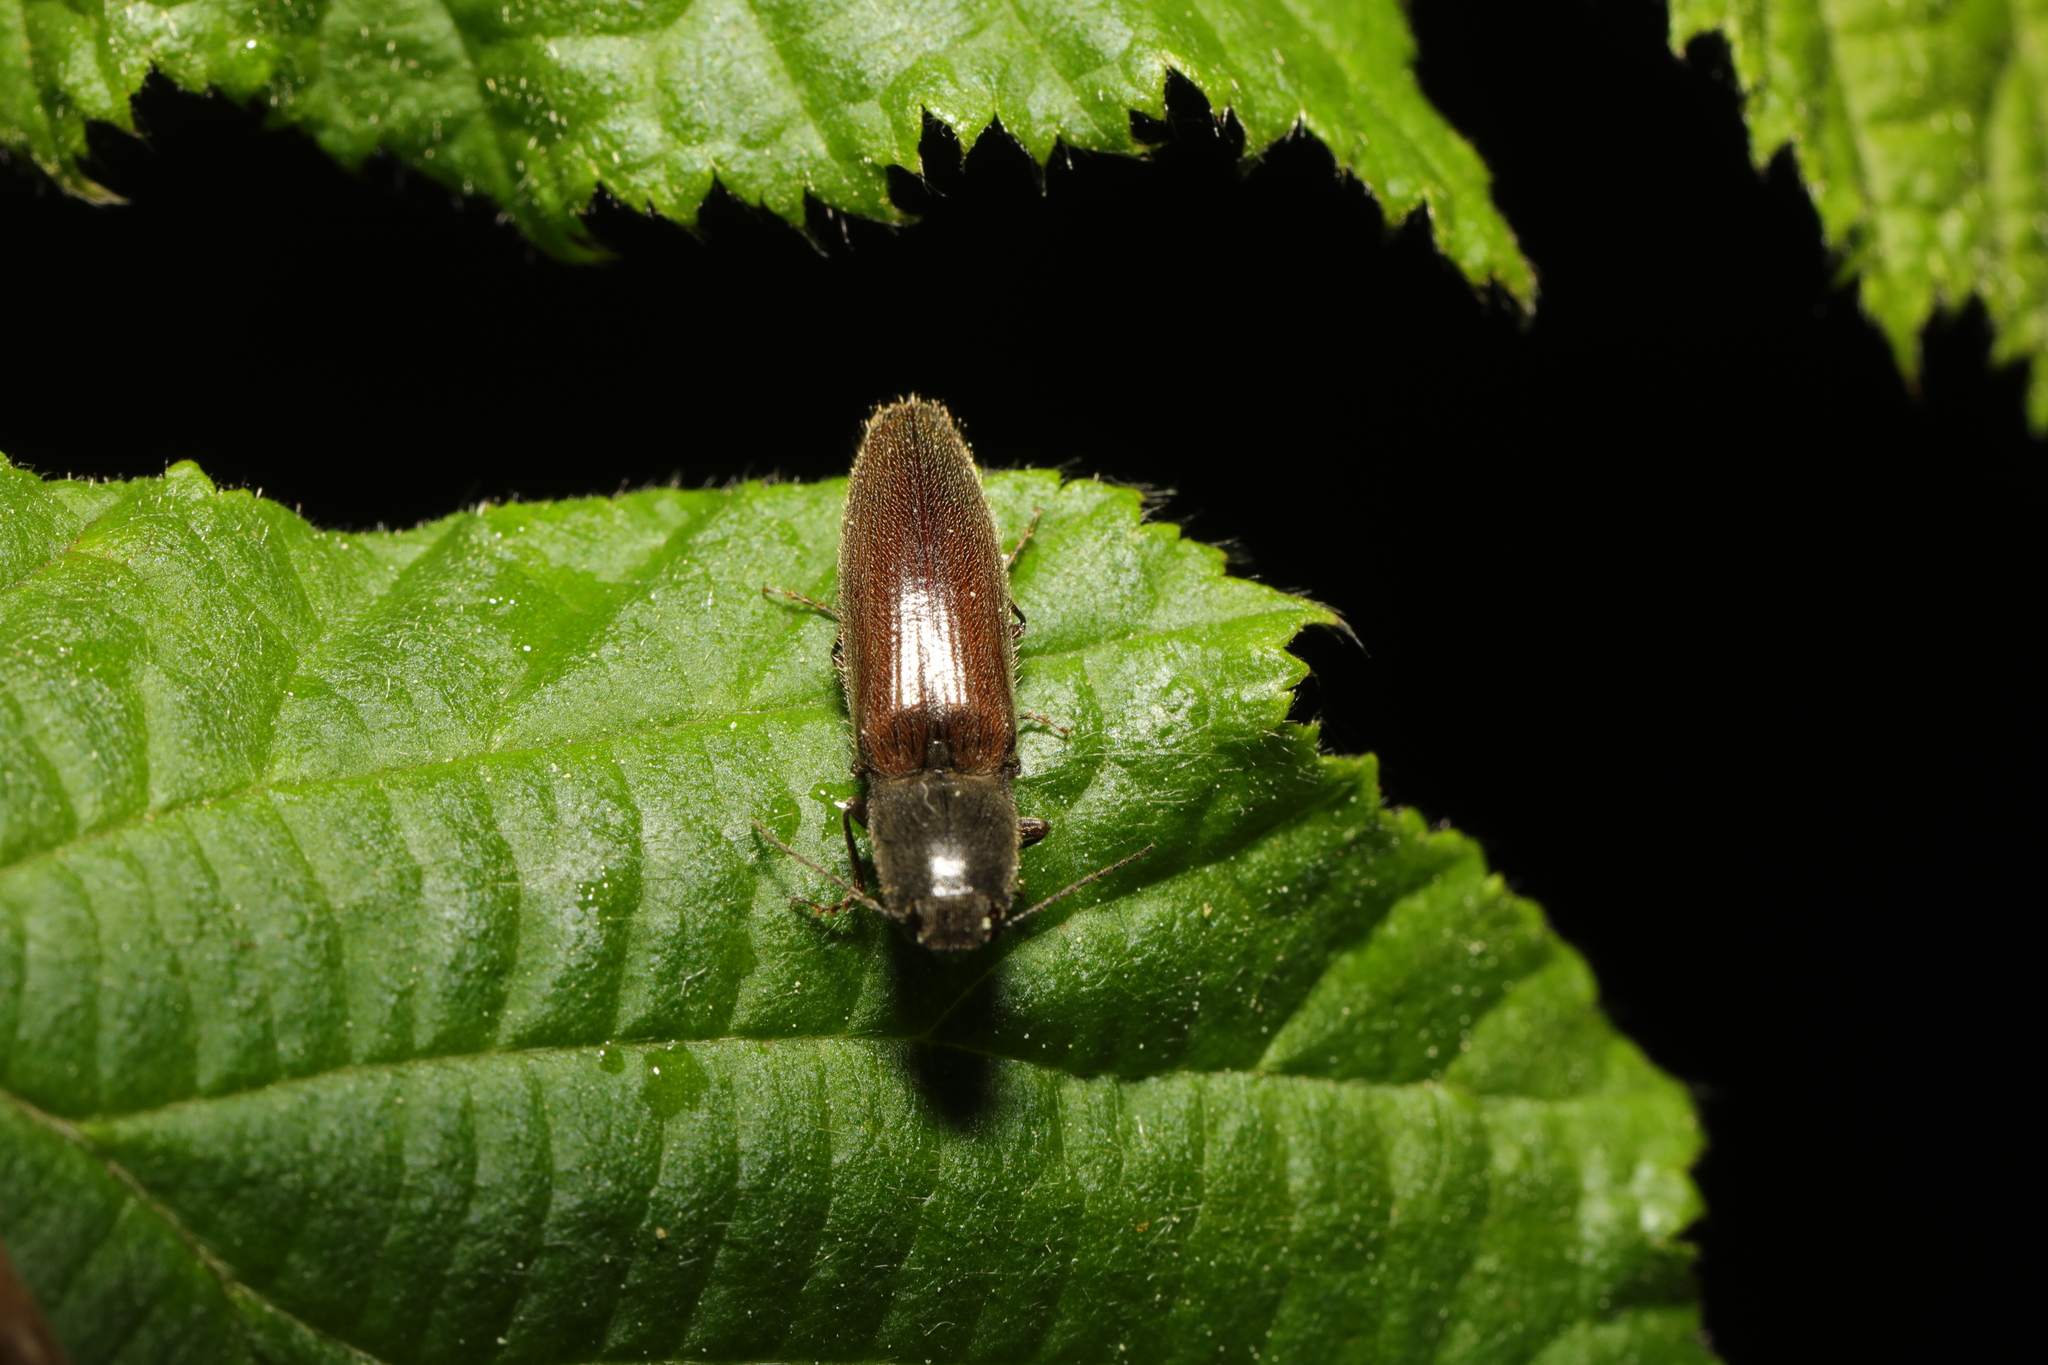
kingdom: Animalia
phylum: Arthropoda
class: Insecta
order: Coleoptera
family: Elateridae
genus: Athous
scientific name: Athous haemorrhoidalis
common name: Red-brown click beetle
